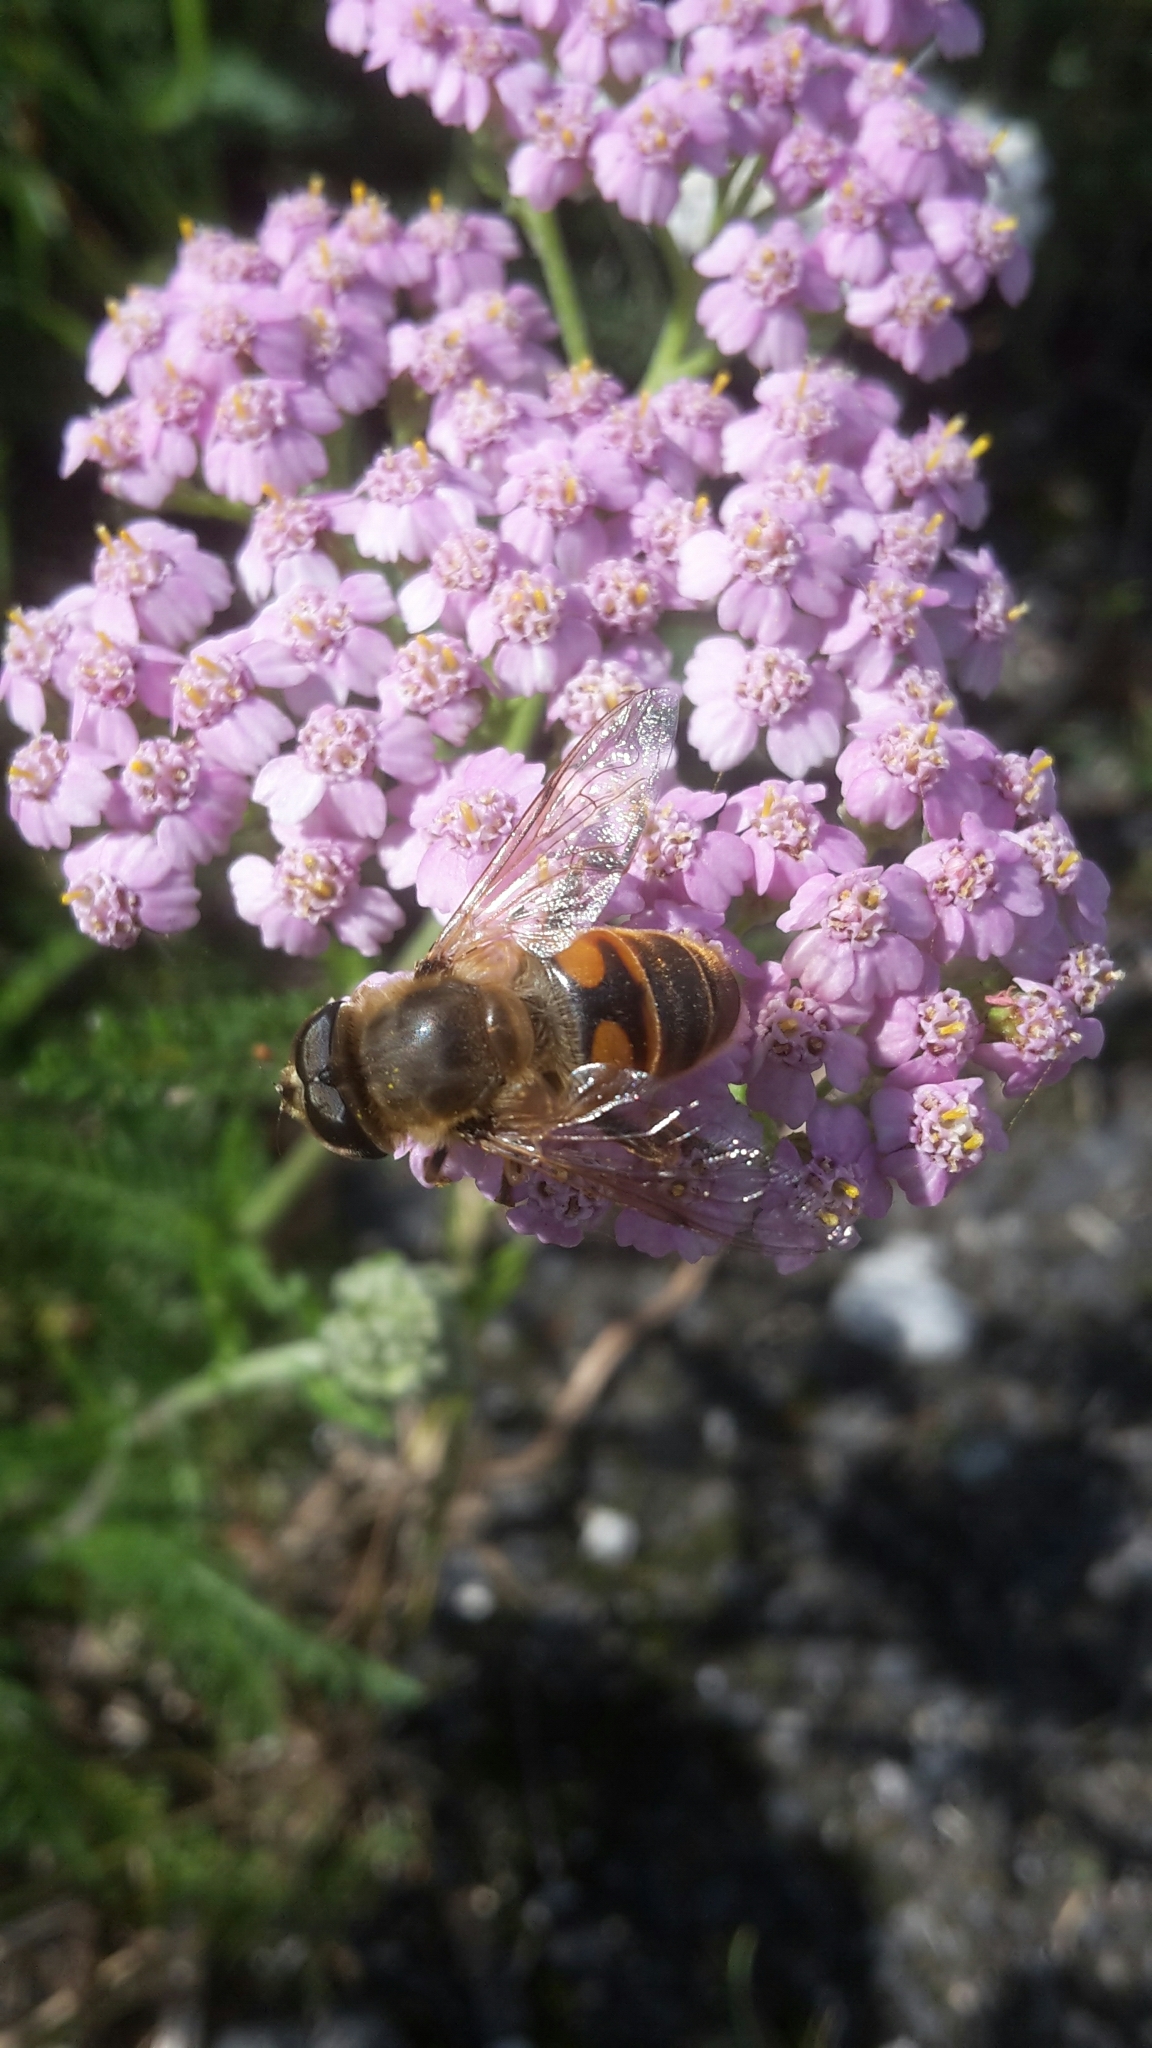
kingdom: Animalia
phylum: Arthropoda
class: Insecta
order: Diptera
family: Syrphidae
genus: Eristalis
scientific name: Eristalis tenax
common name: Drone fly
